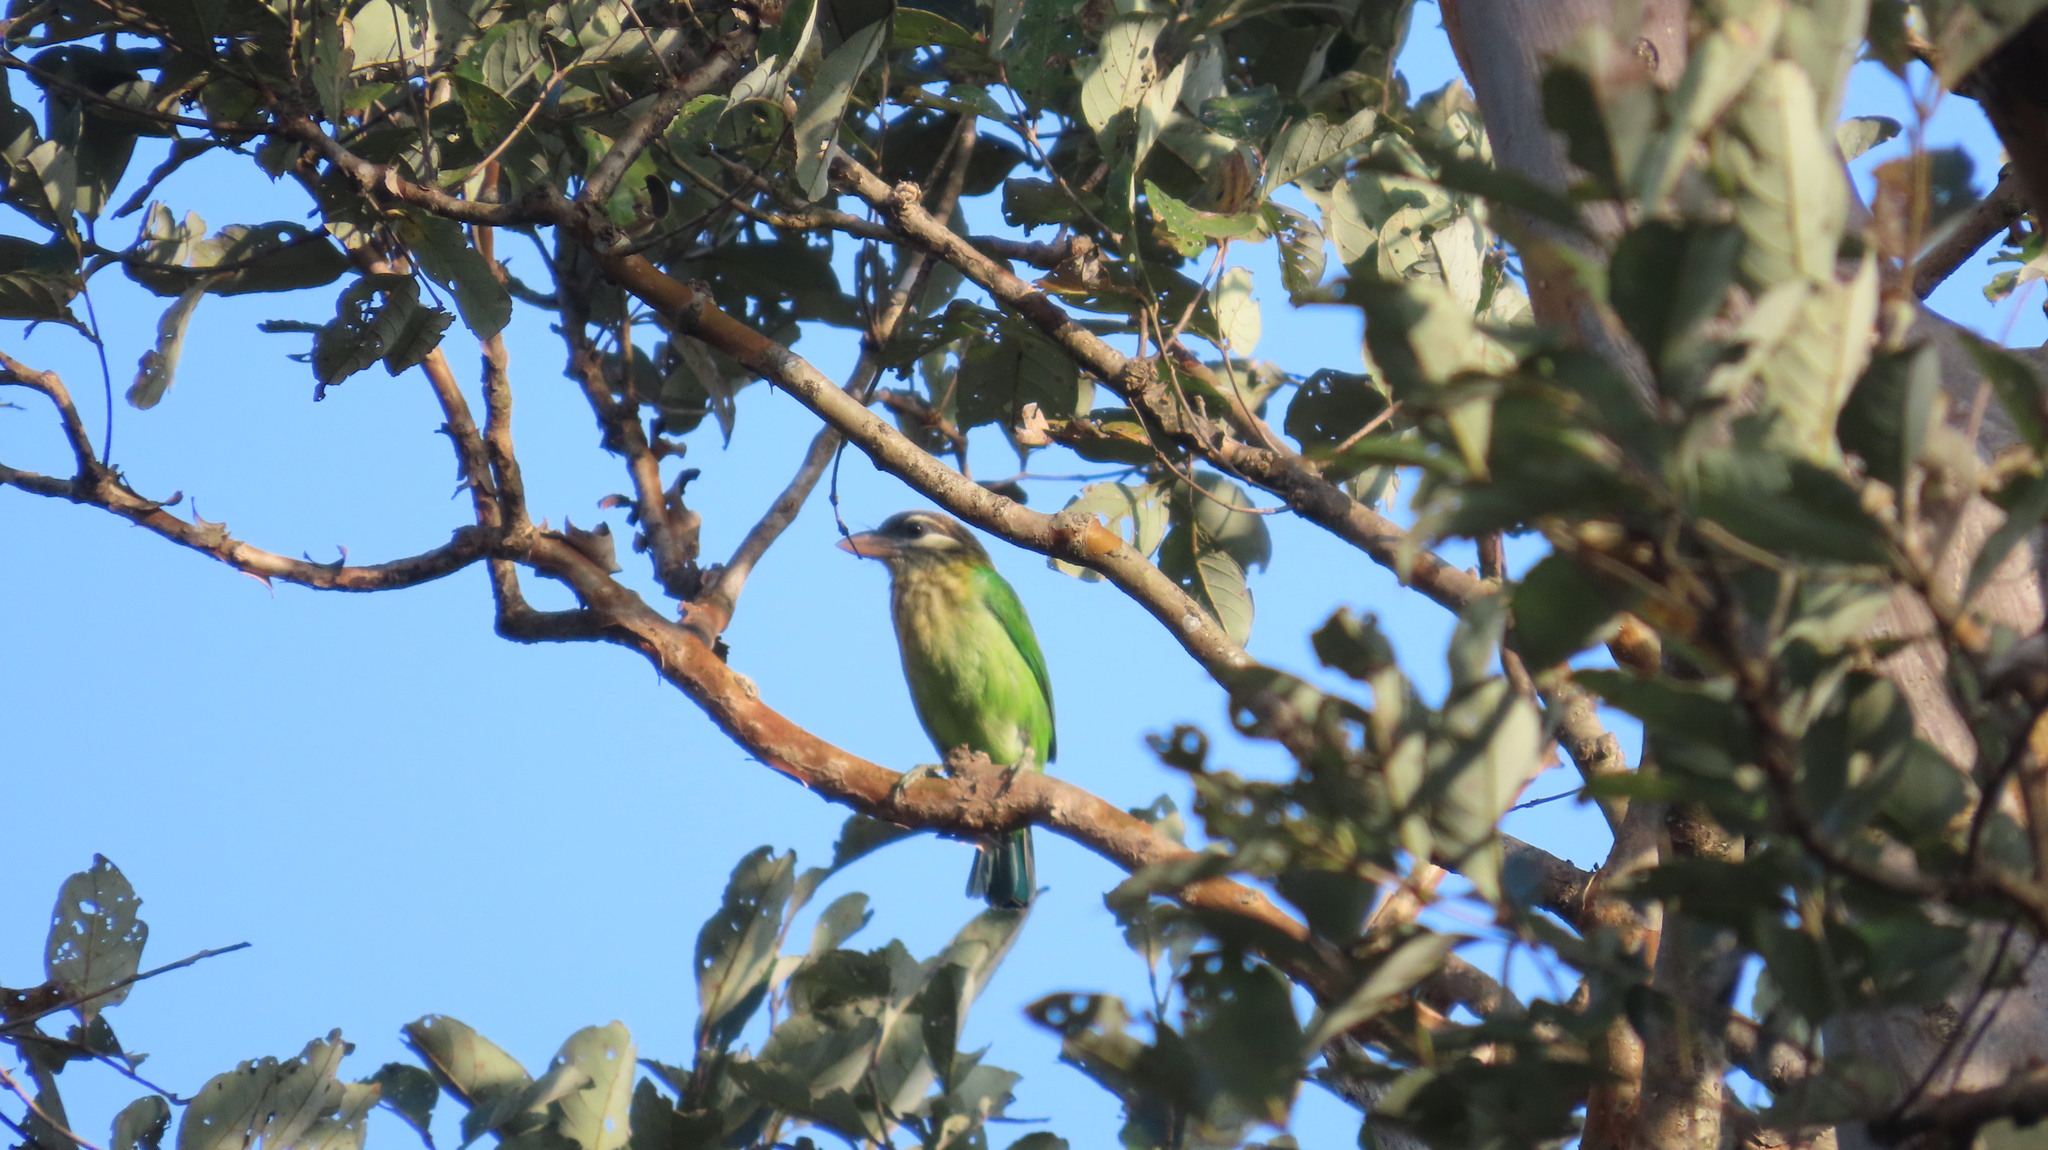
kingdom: Animalia
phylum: Chordata
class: Aves
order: Piciformes
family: Megalaimidae
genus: Psilopogon
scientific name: Psilopogon viridis
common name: White-cheeked barbet
